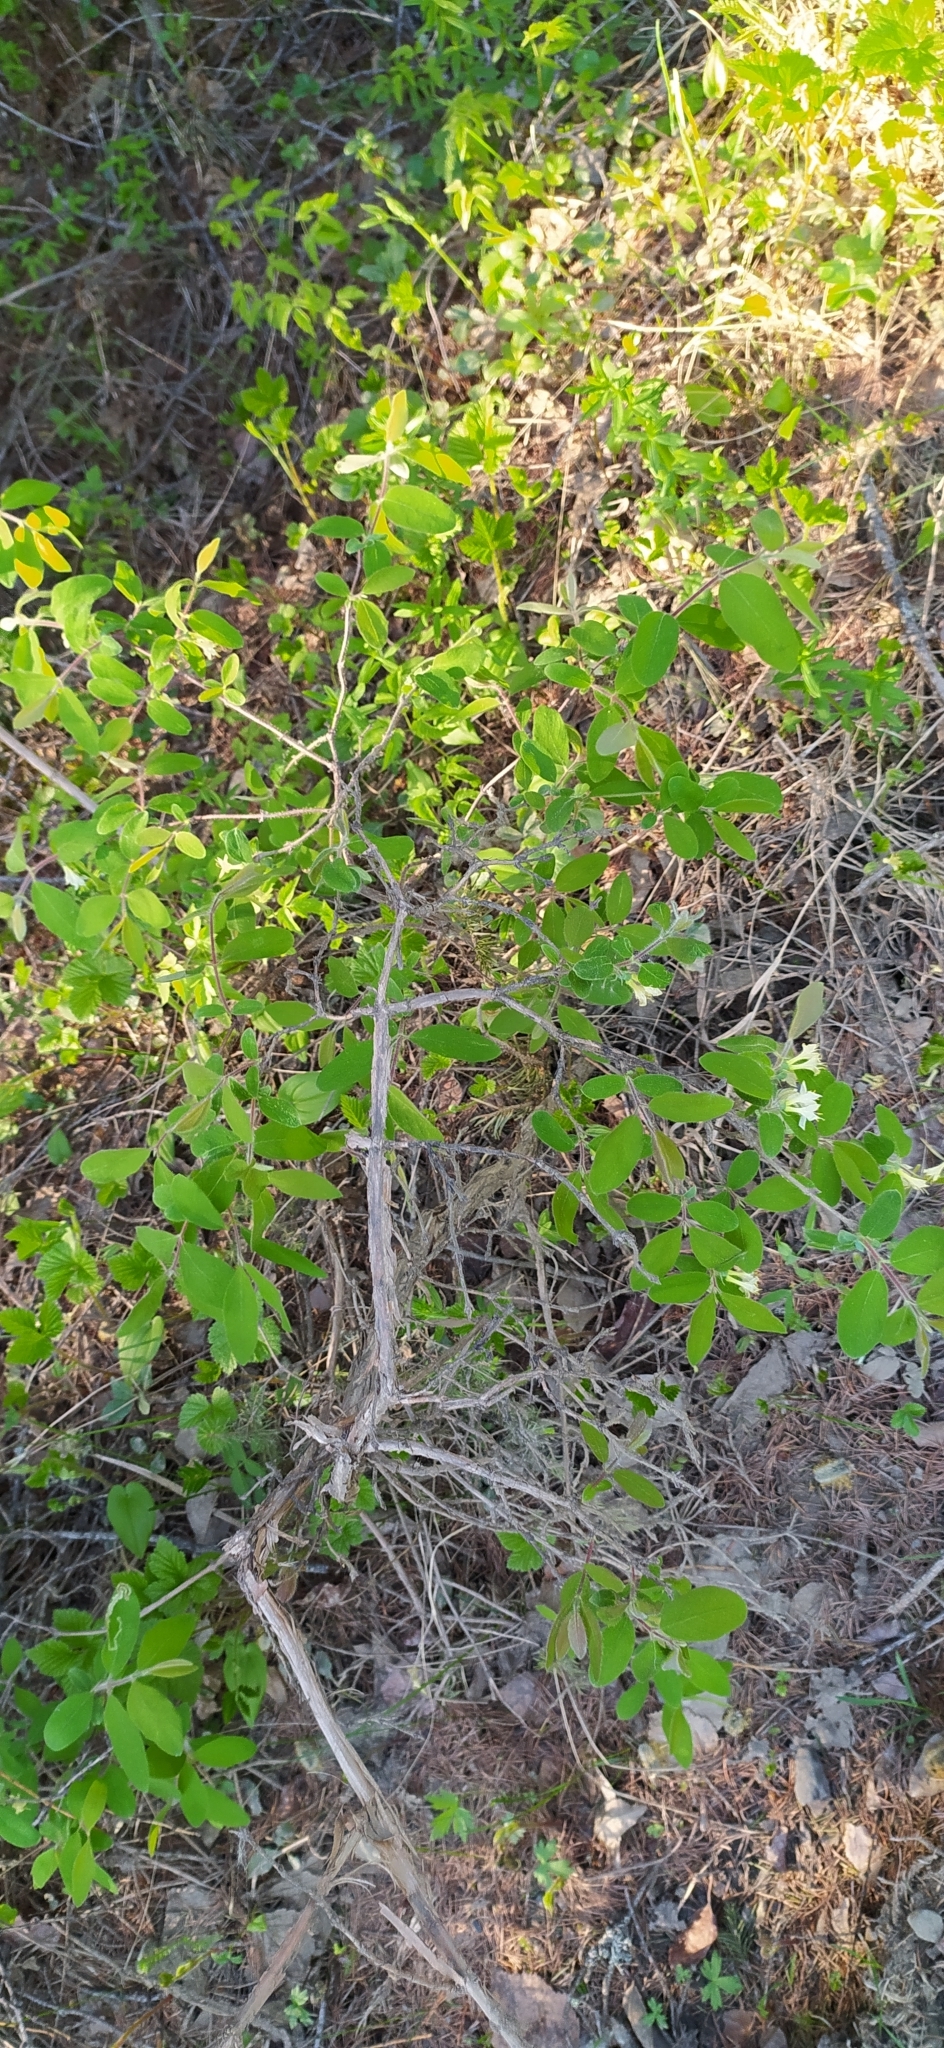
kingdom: Plantae
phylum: Tracheophyta
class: Magnoliopsida
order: Dipsacales
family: Caprifoliaceae
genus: Lonicera
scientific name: Lonicera caerulea
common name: Blue honeysuckle
